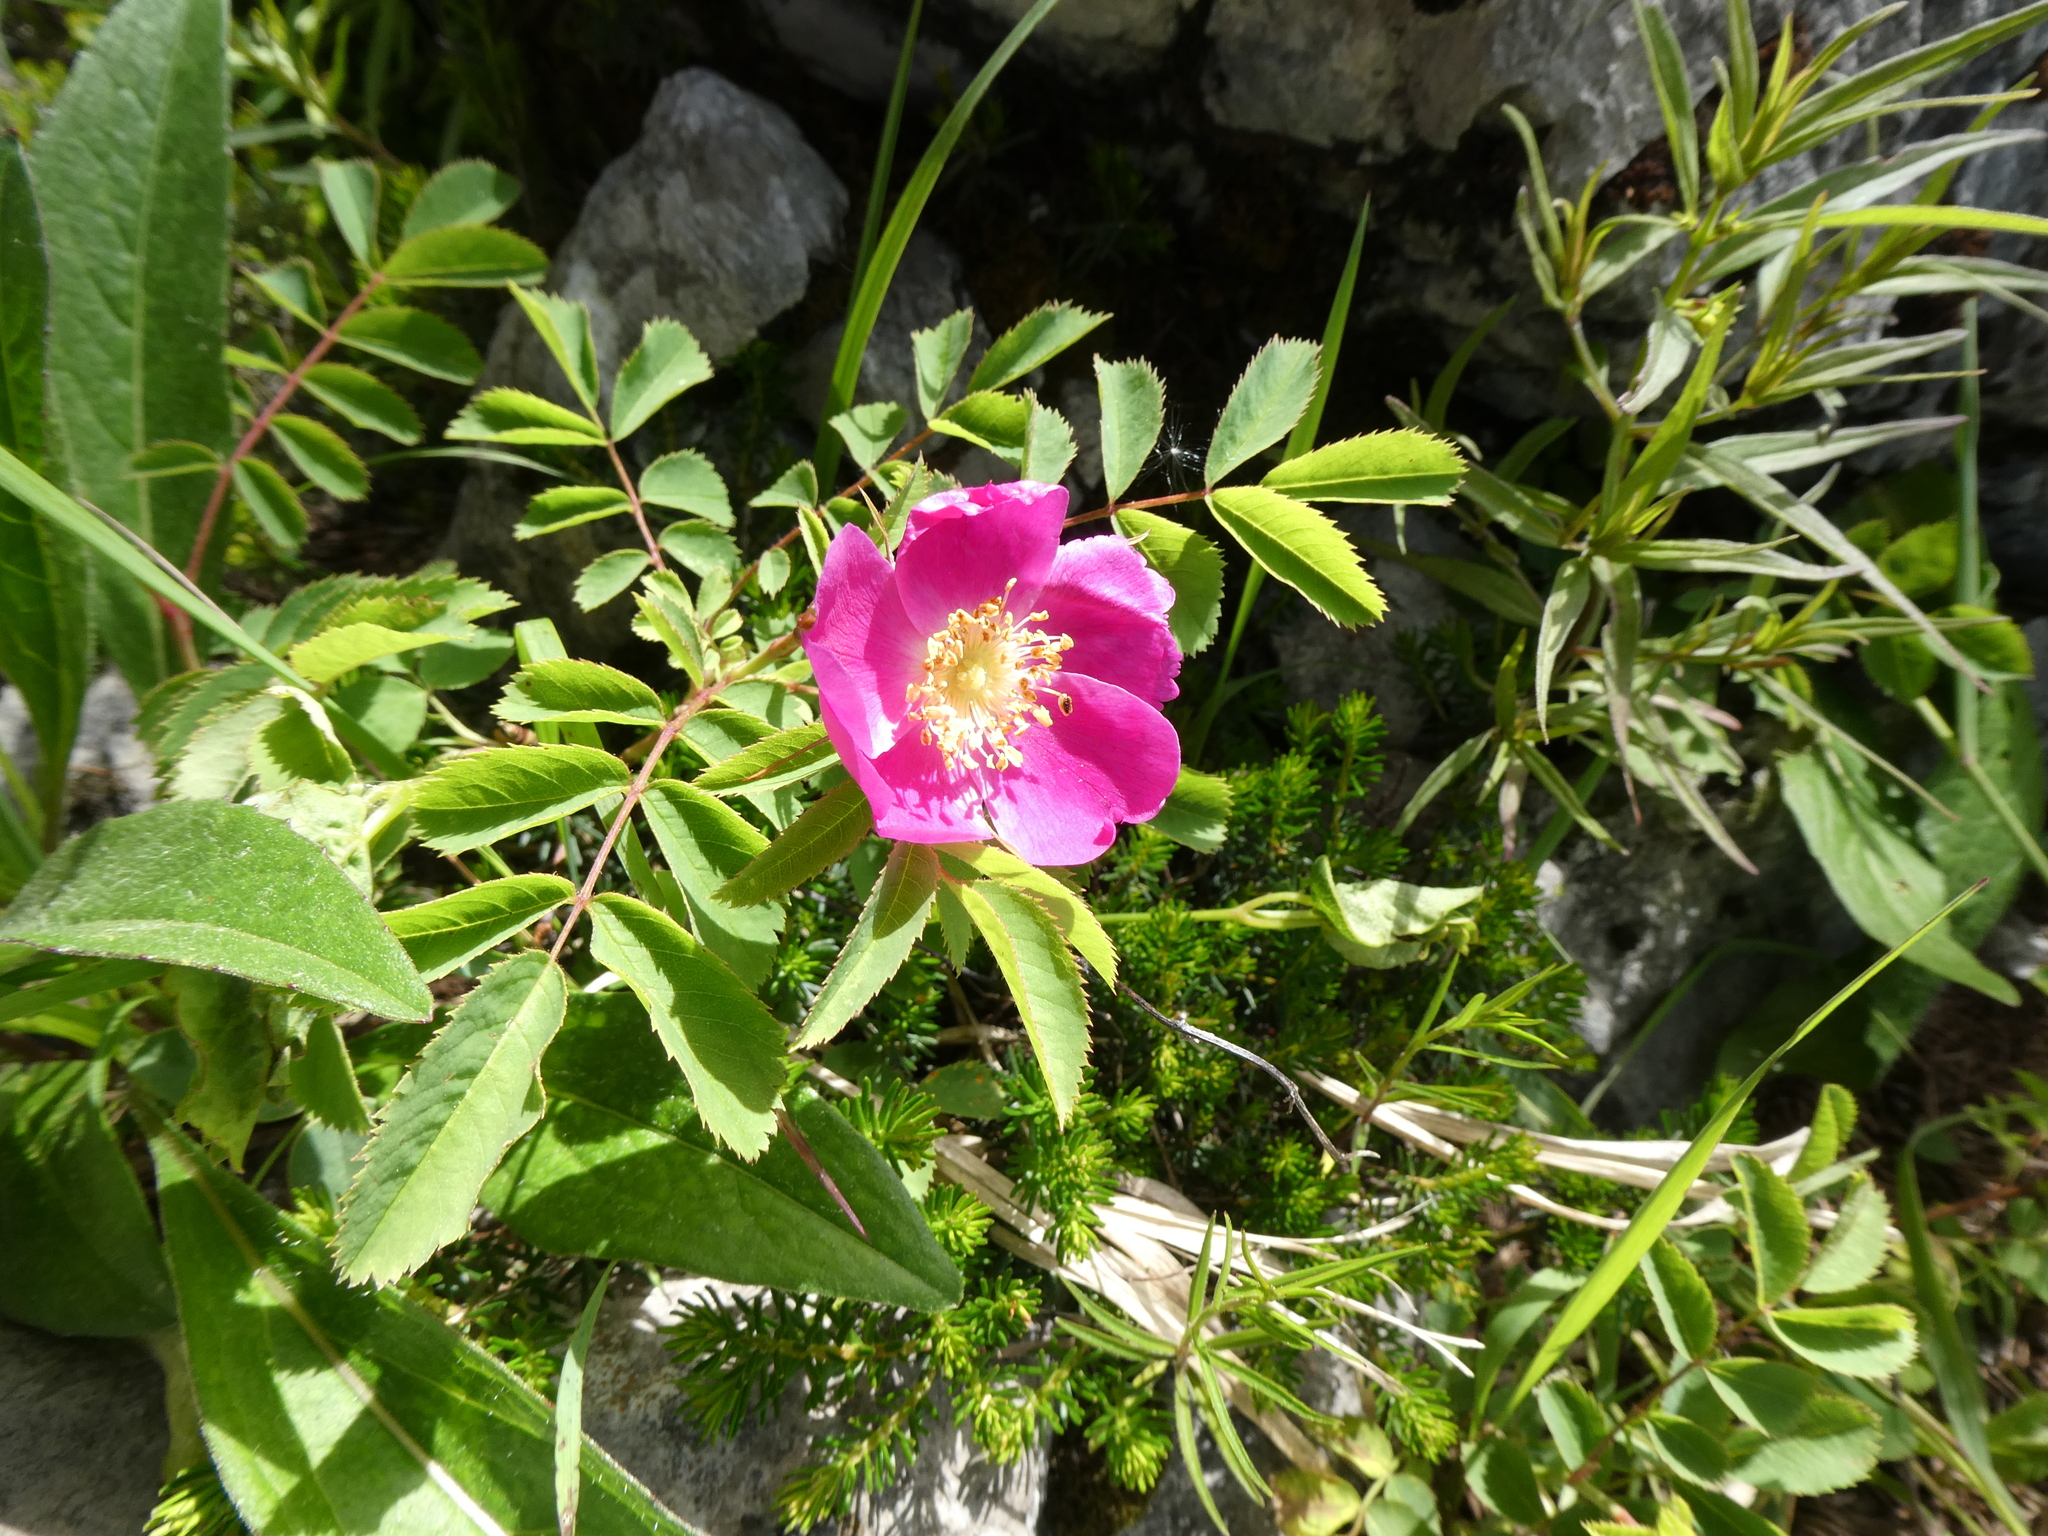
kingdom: Plantae
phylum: Tracheophyta
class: Magnoliopsida
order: Rosales
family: Rosaceae
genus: Rosa
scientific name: Rosa pendulina
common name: Alpine rose
